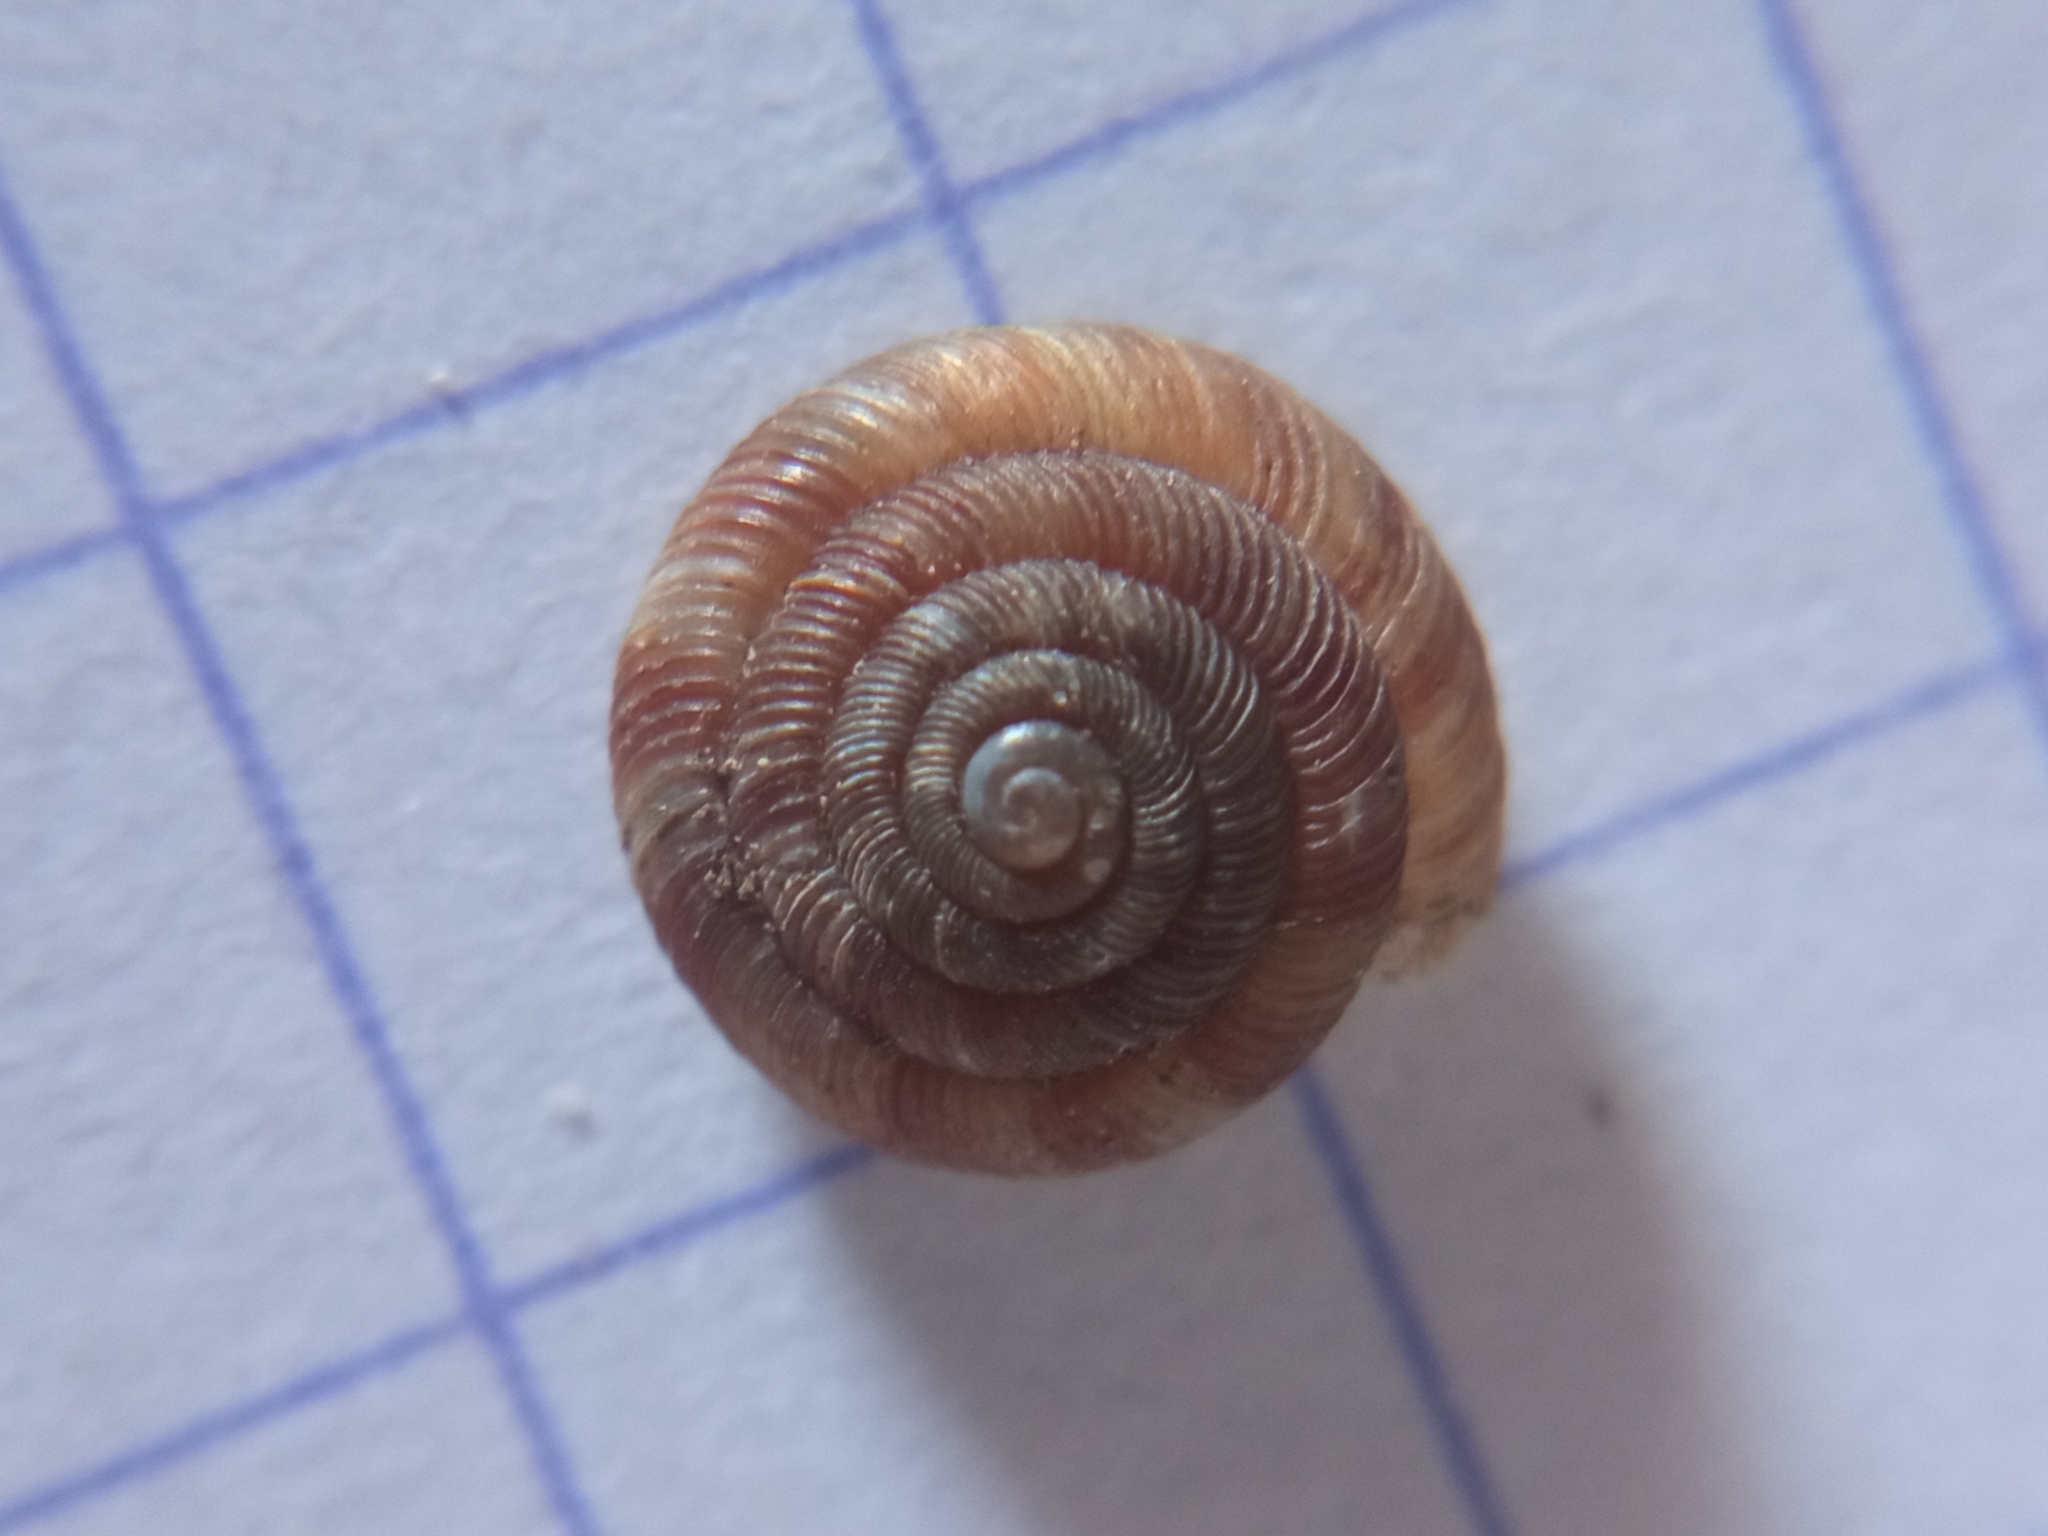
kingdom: Animalia
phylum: Mollusca
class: Gastropoda
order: Stylommatophora
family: Discidae
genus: Discus
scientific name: Discus rotundatus
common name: Rounded snail
